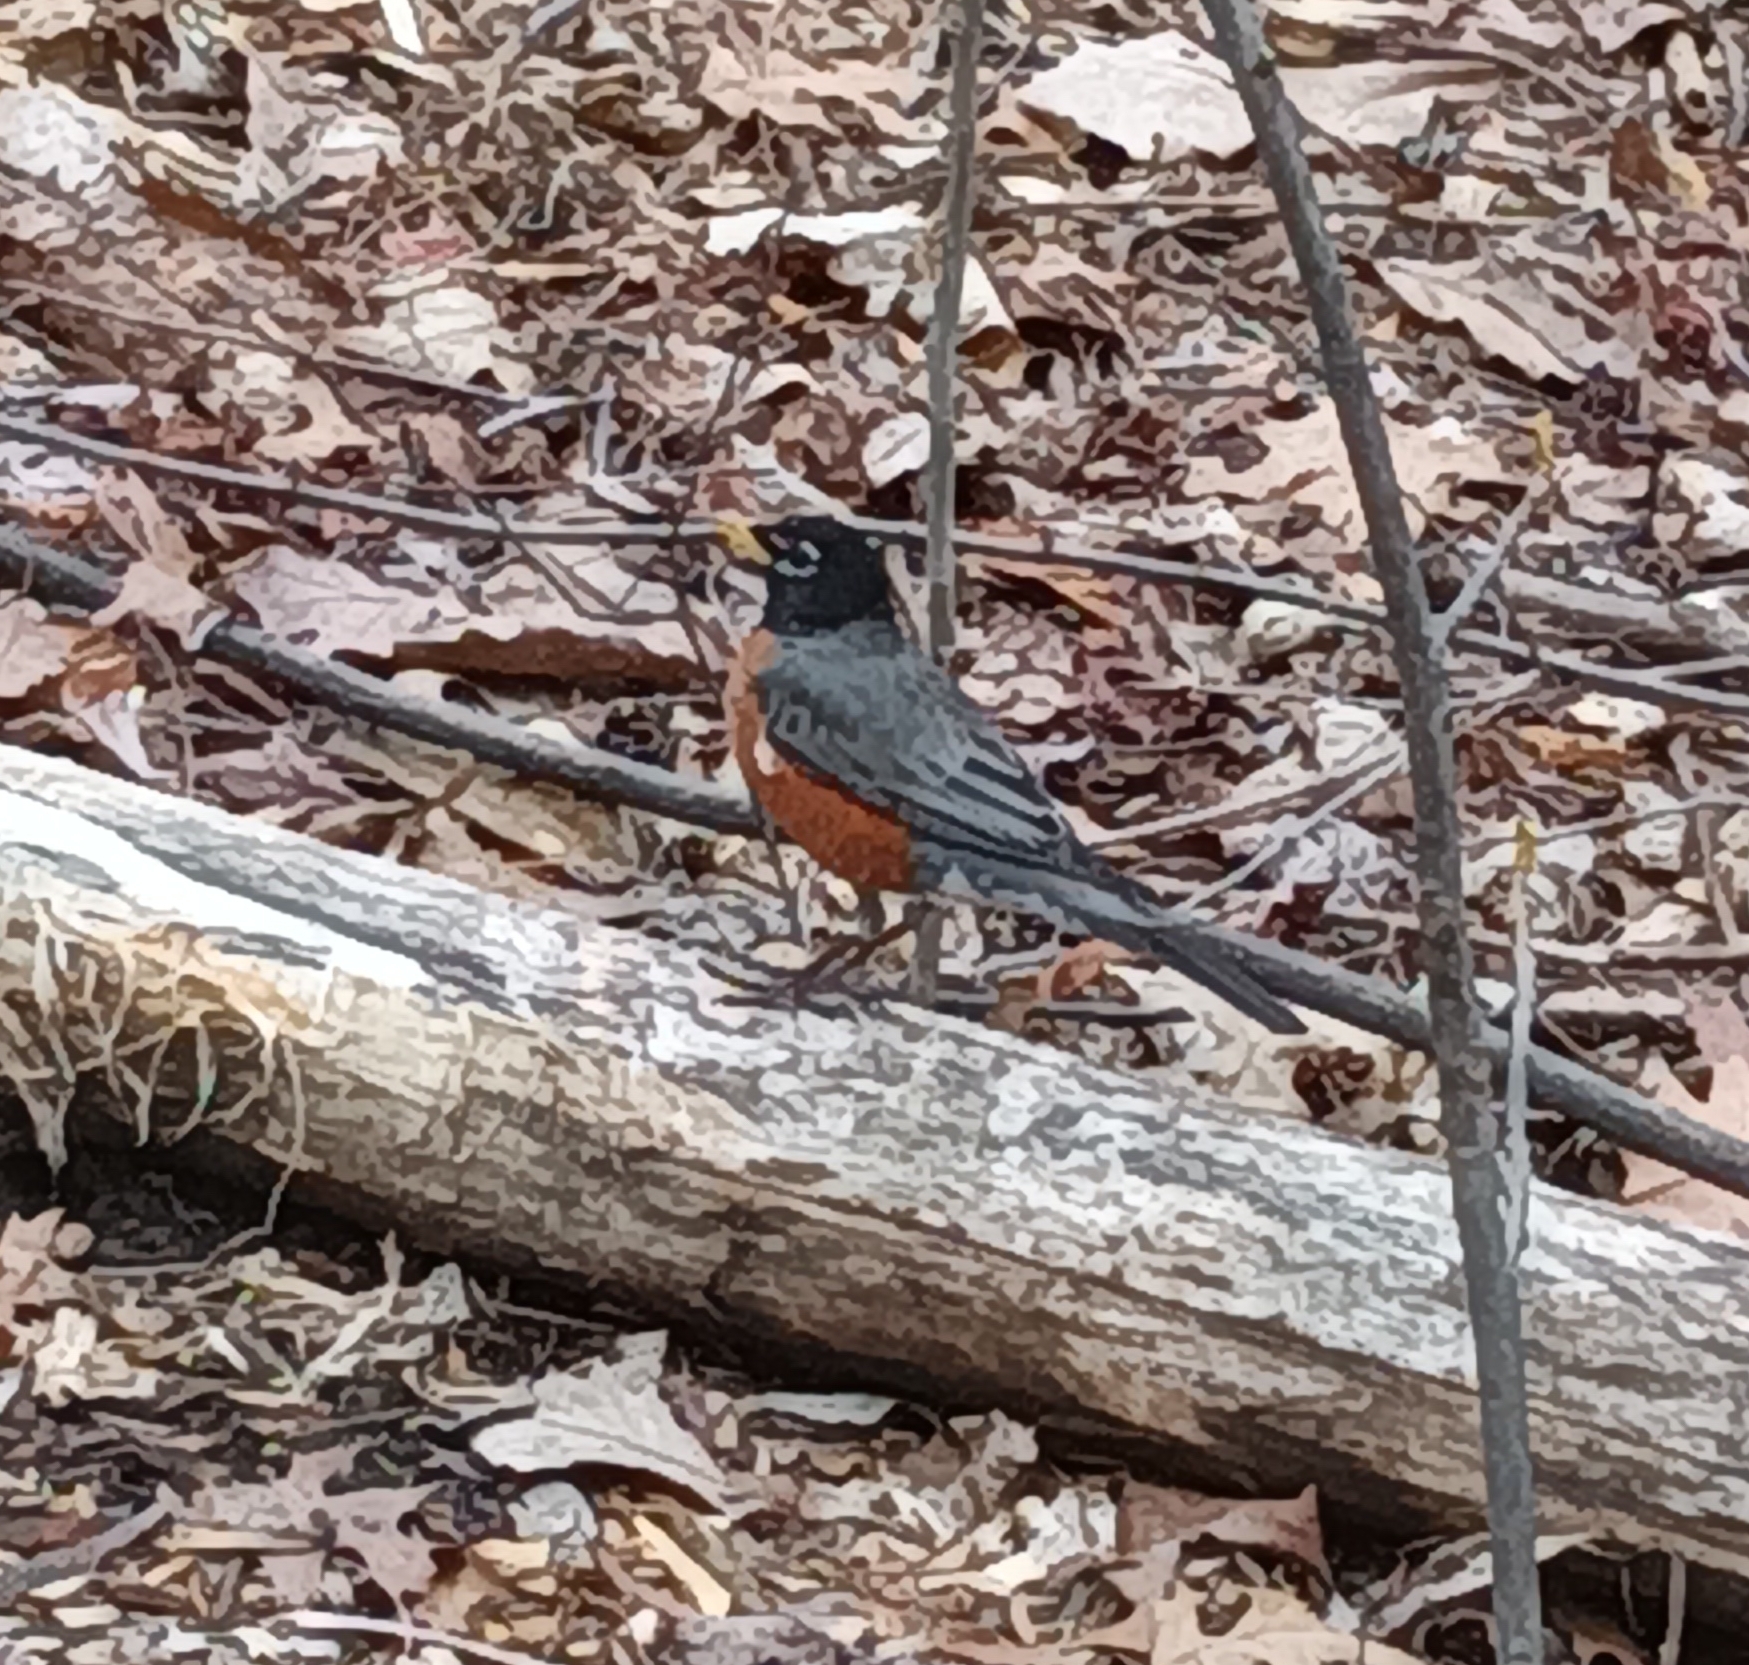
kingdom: Animalia
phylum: Chordata
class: Aves
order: Passeriformes
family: Turdidae
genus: Turdus
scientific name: Turdus migratorius
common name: American robin
